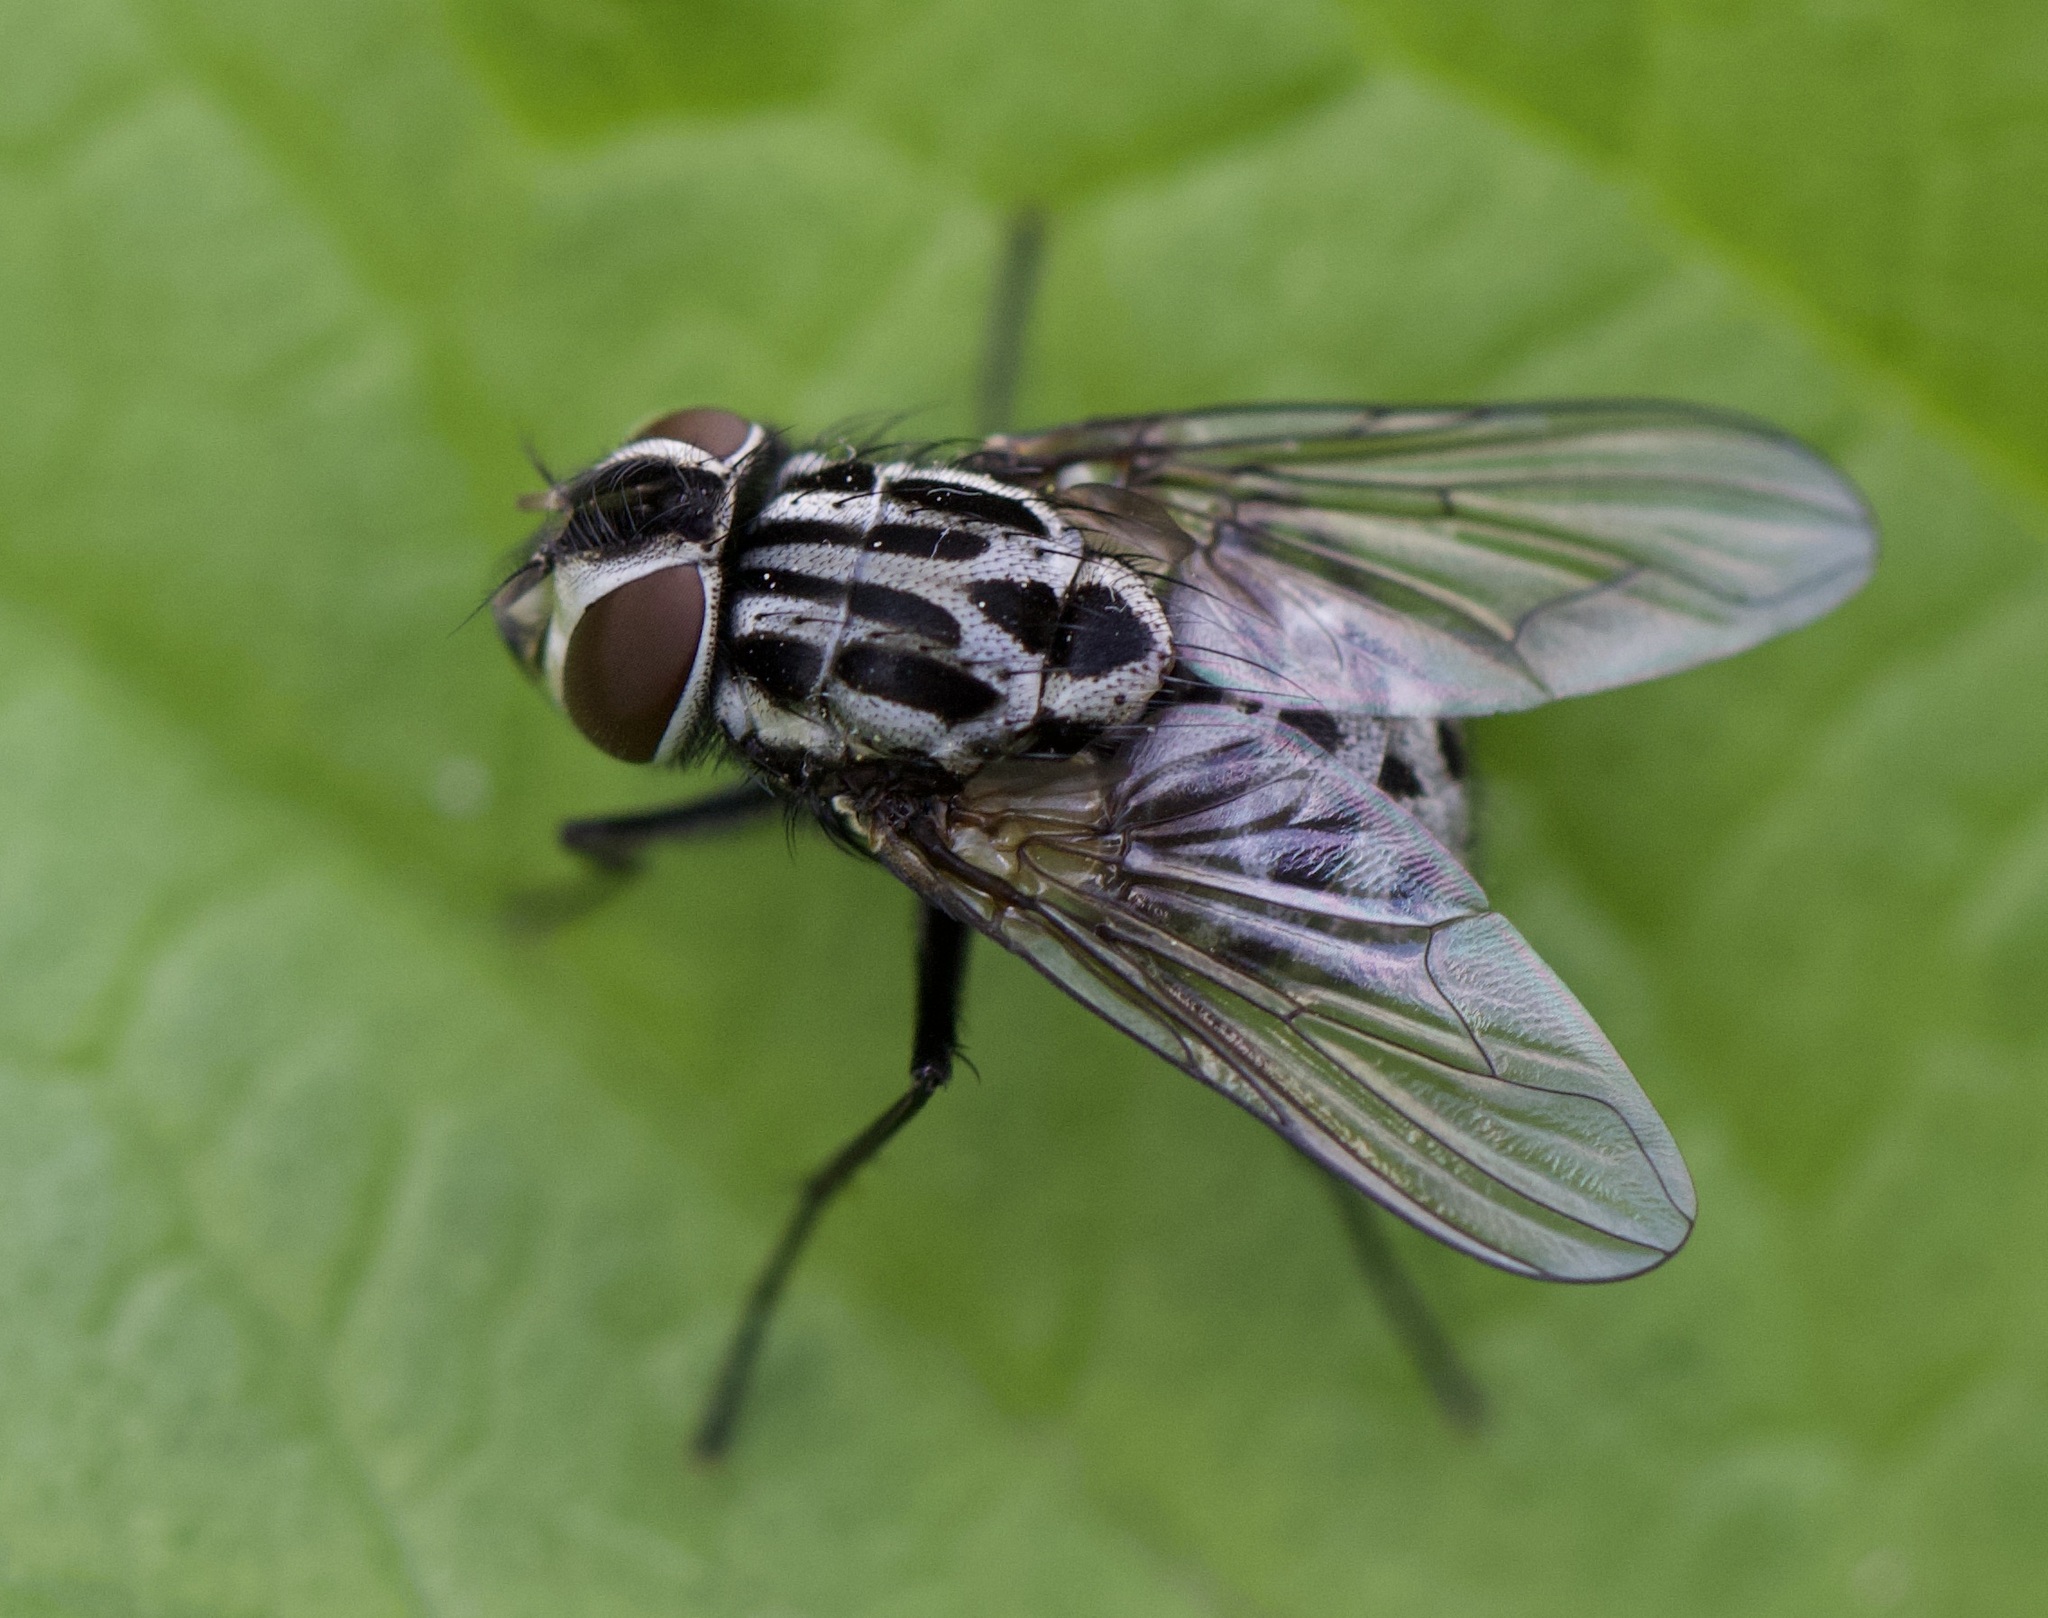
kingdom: Animalia
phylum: Arthropoda
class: Insecta
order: Diptera
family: Muscidae
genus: Graphomya
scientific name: Graphomya maculata
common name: Muscid fly
